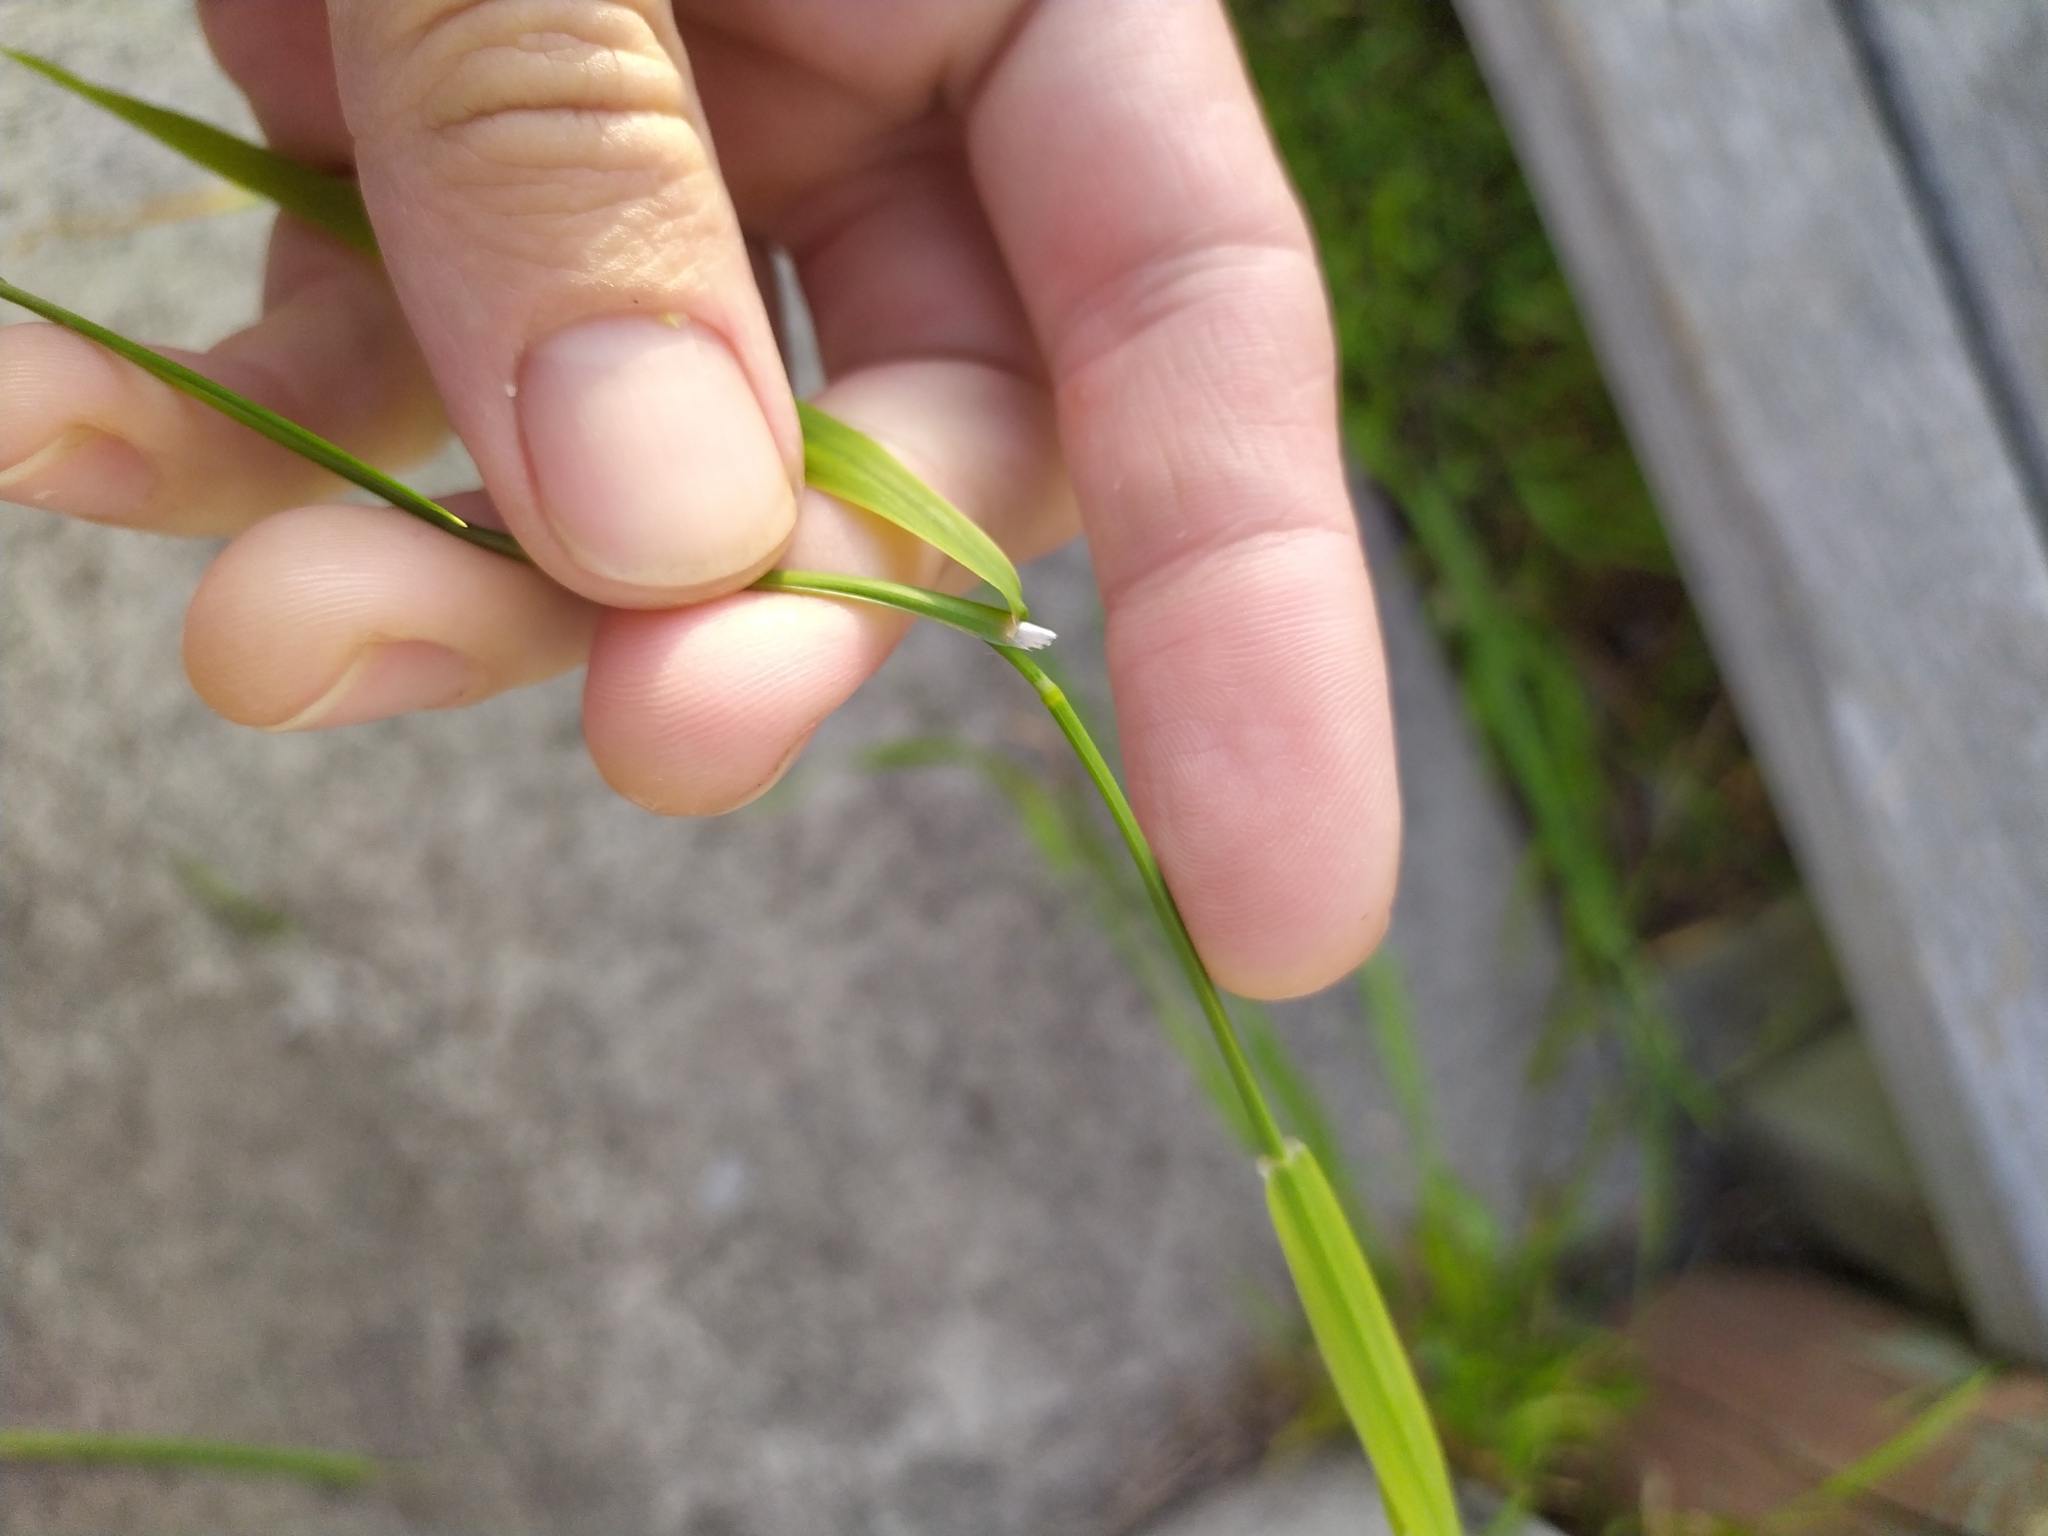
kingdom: Plantae
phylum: Tracheophyta
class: Liliopsida
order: Poales
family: Poaceae
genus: Ehrharta
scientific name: Ehrharta erecta
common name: Panic veldtgrass
